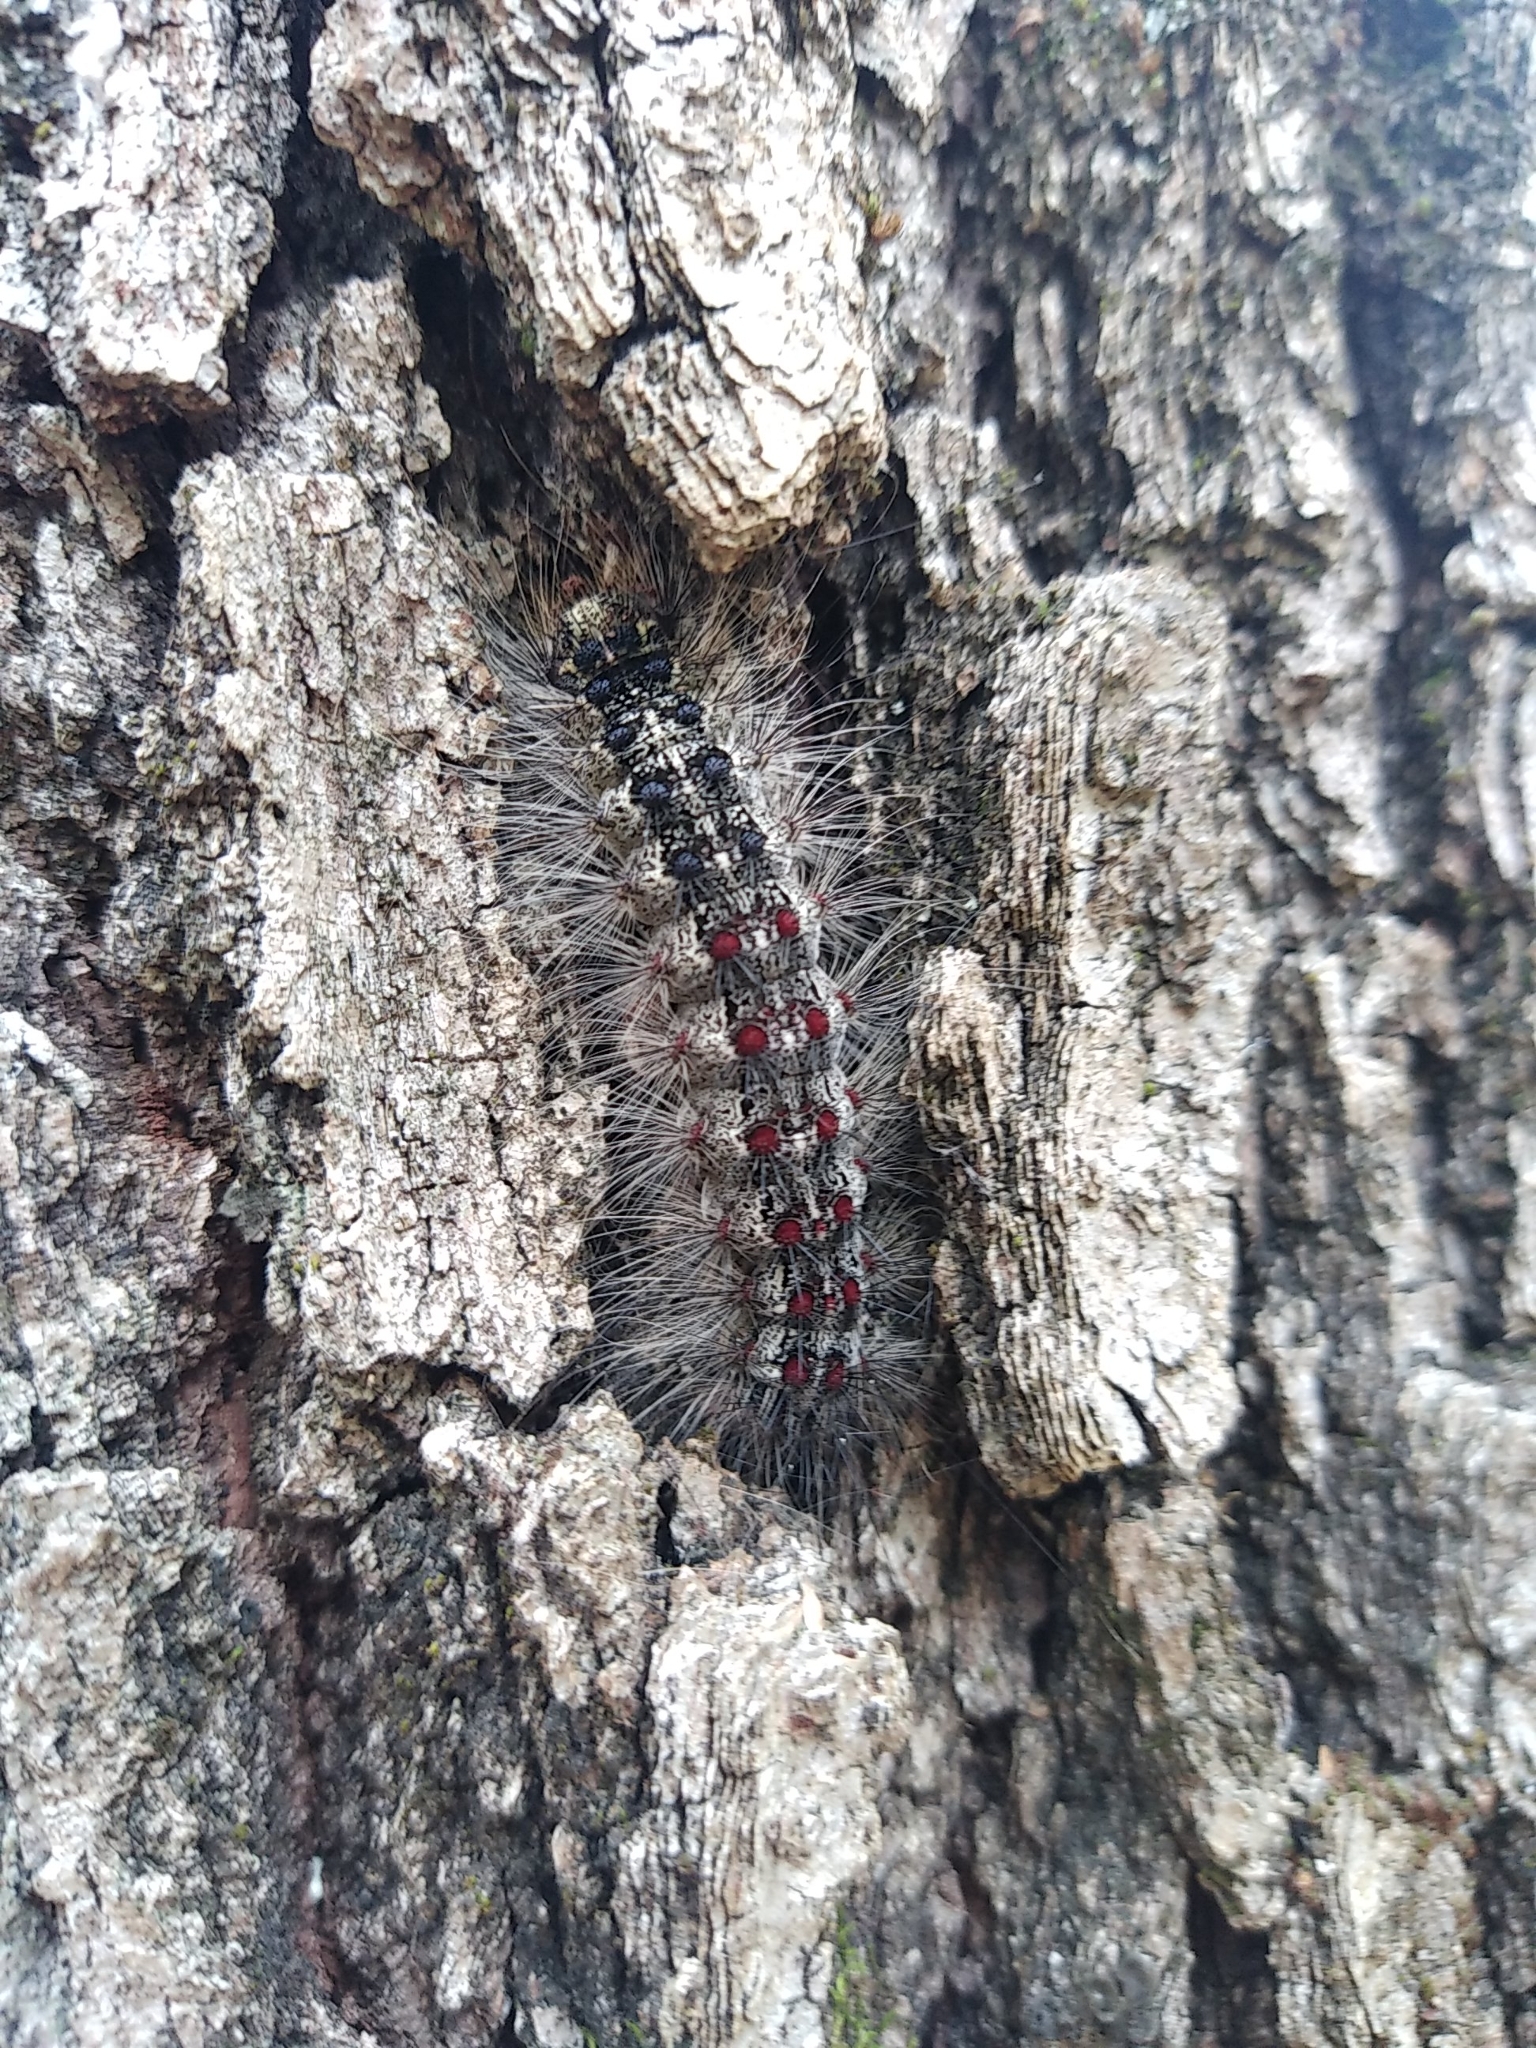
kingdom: Animalia
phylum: Arthropoda
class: Insecta
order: Lepidoptera
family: Erebidae
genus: Lymantria
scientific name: Lymantria dispar
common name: Gypsy moth
